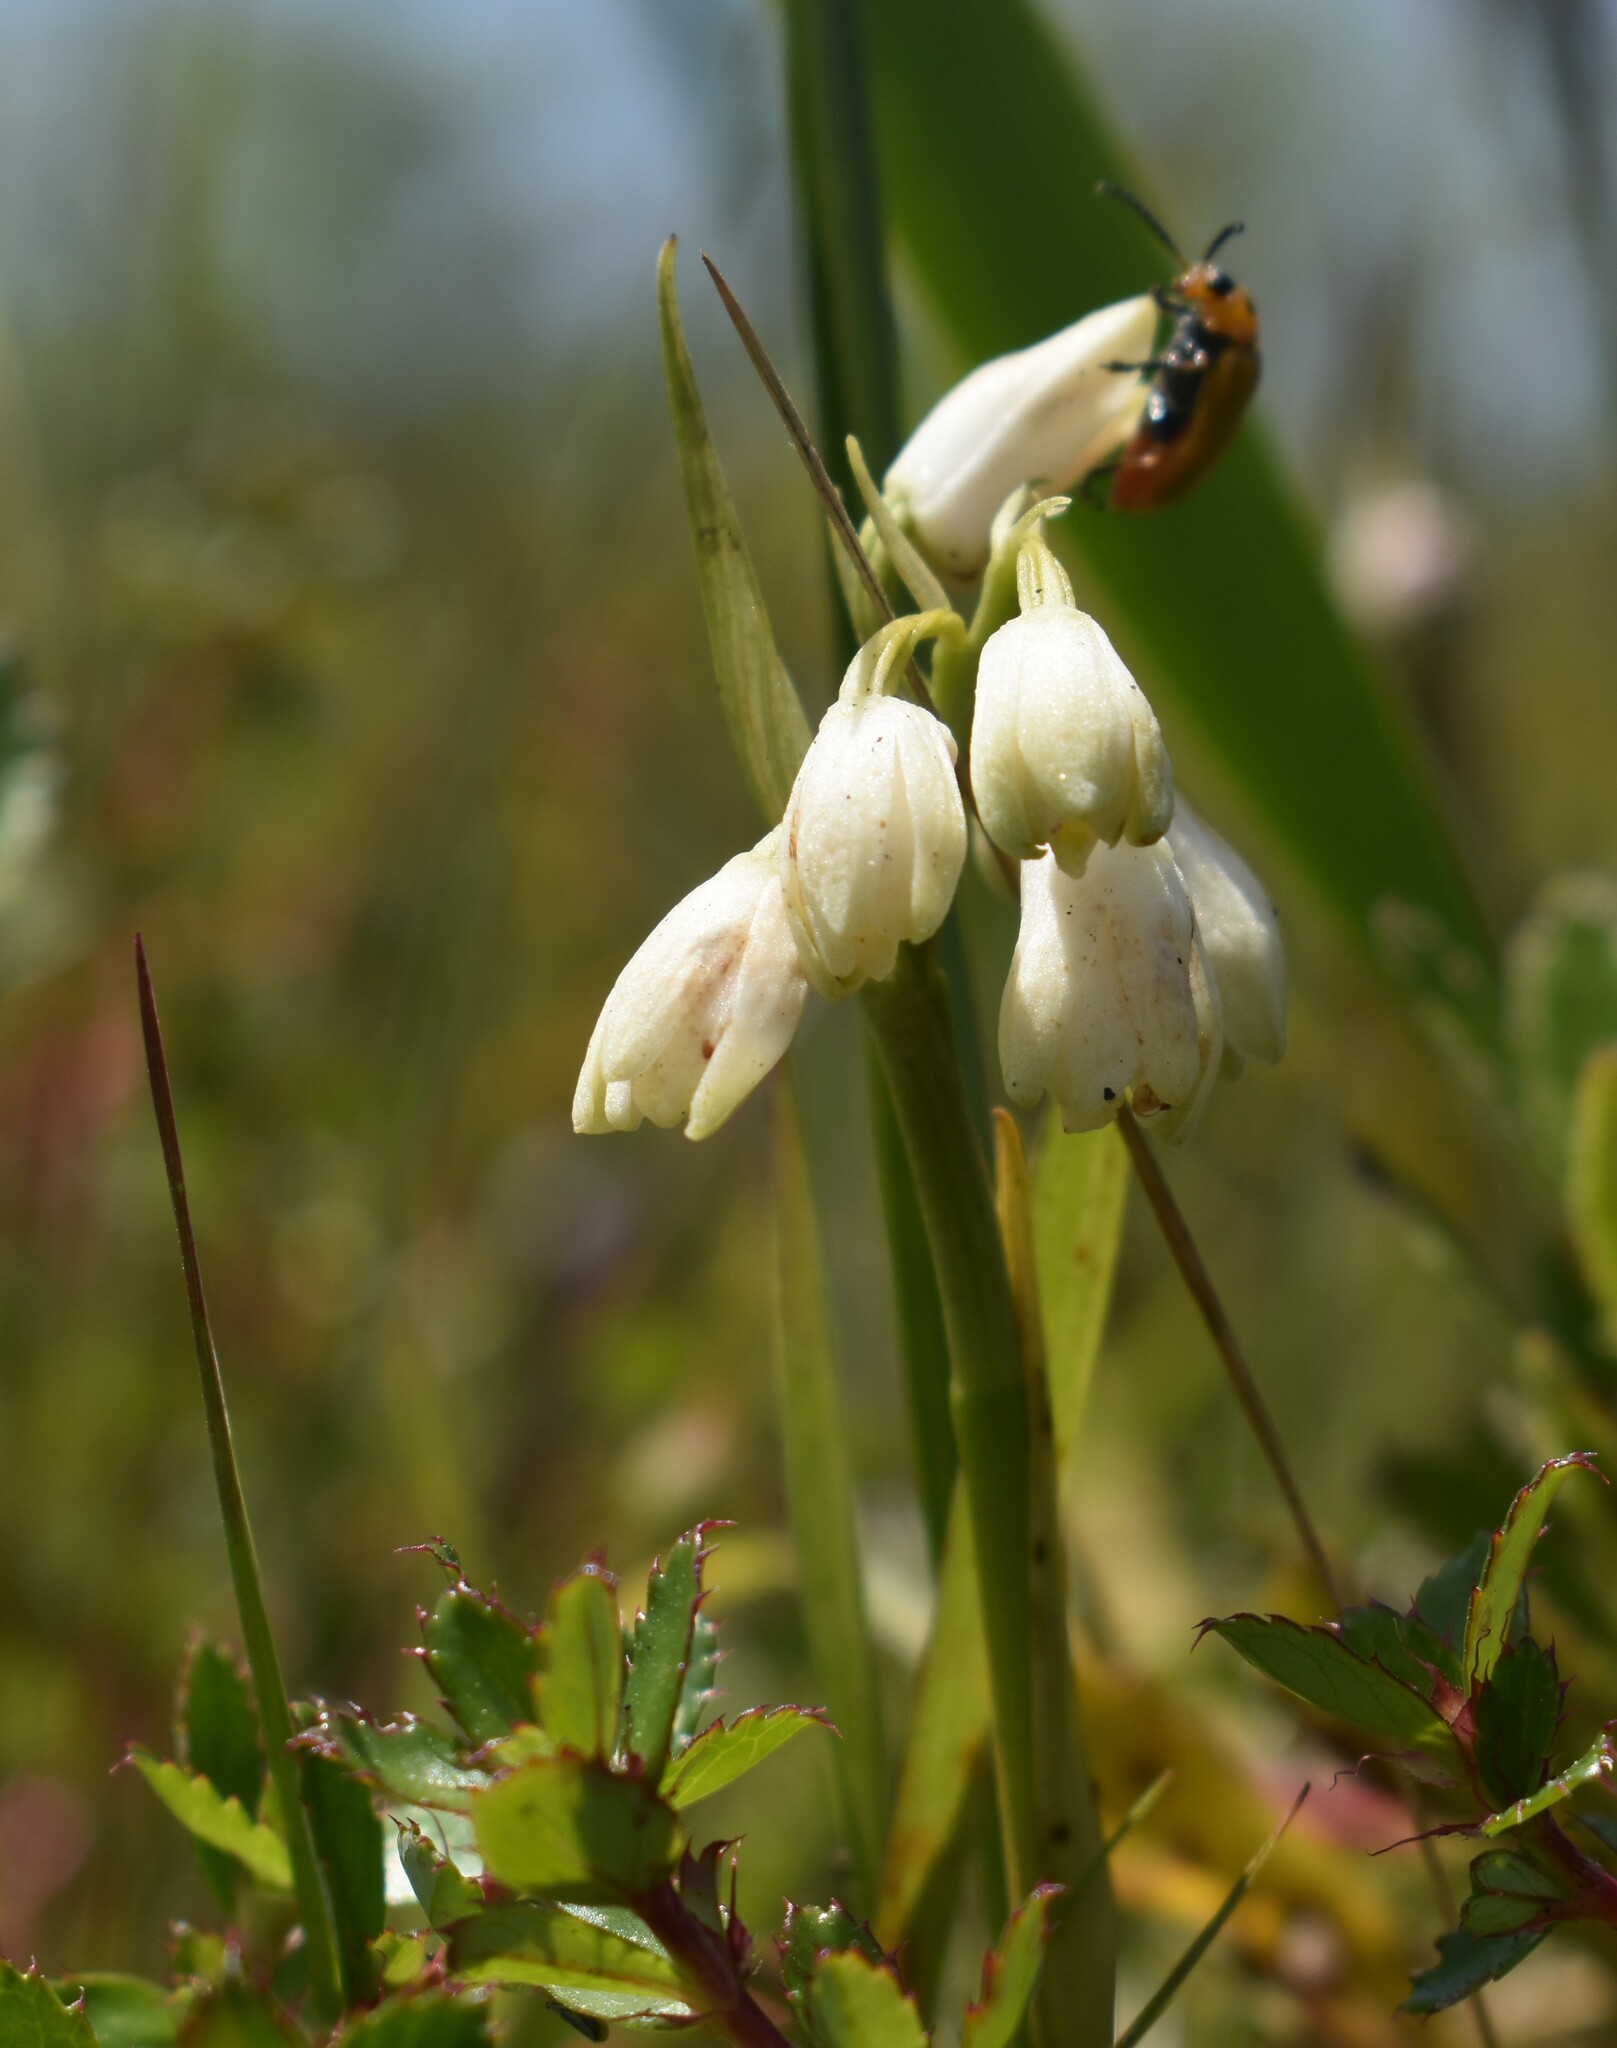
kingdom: Plantae
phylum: Tracheophyta
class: Liliopsida
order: Asparagales
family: Orchidaceae
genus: Eulophia
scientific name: Eulophia aculeata
